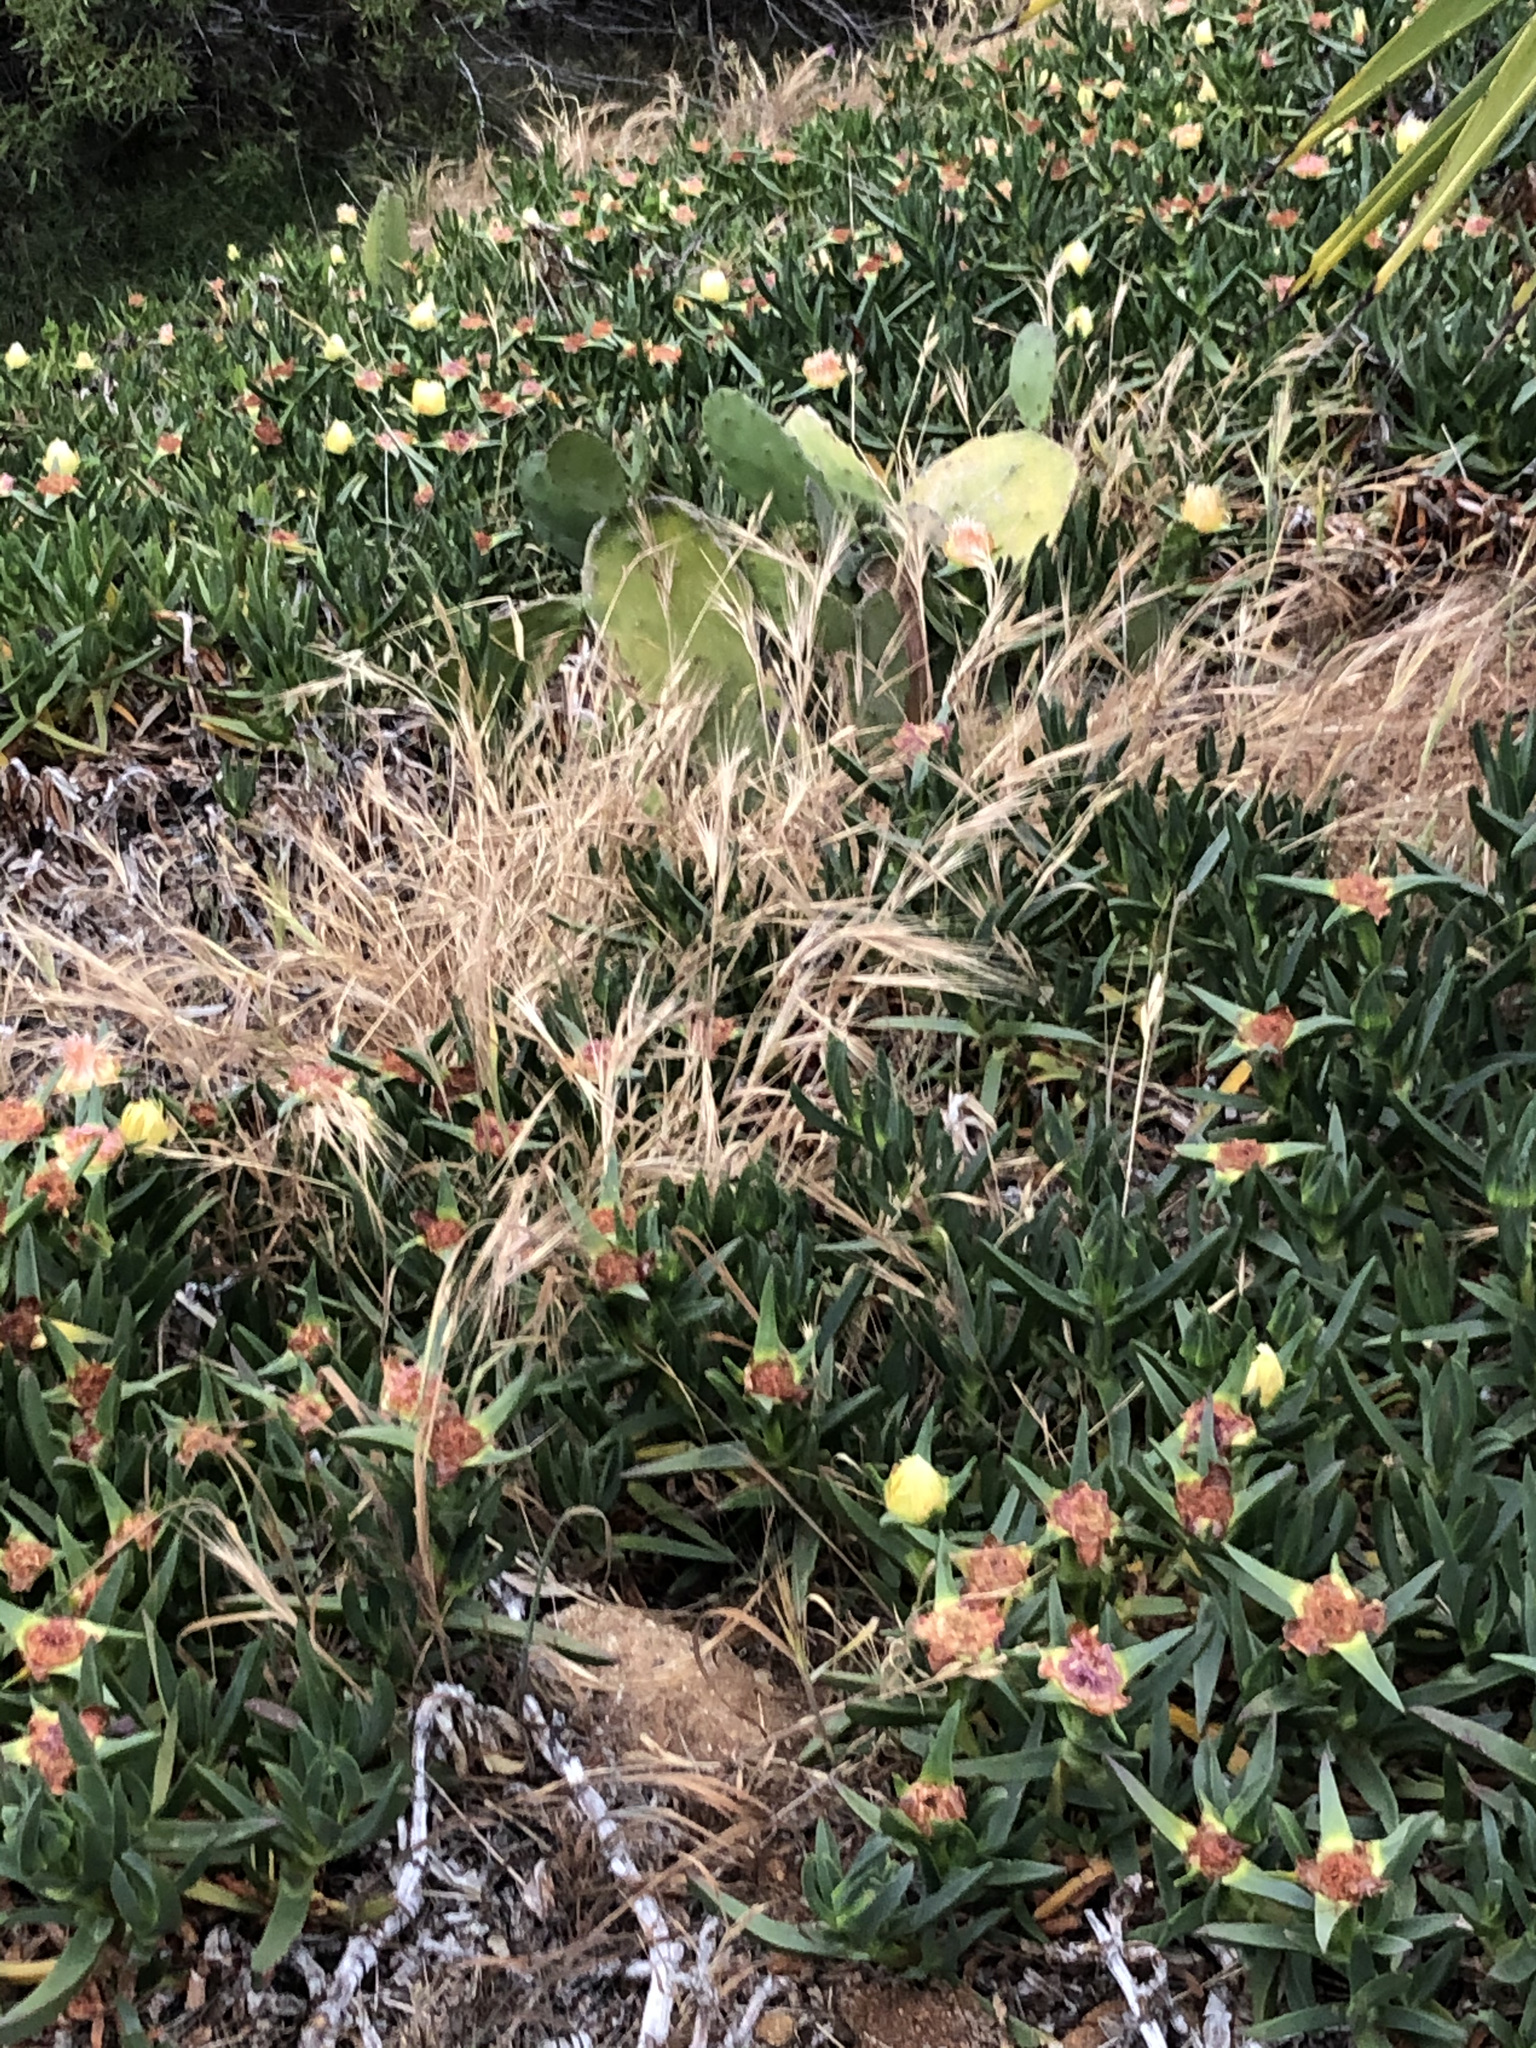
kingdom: Plantae
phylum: Tracheophyta
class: Magnoliopsida
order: Caryophyllales
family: Aizoaceae
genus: Carpobrotus
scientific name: Carpobrotus edulis
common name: Hottentot-fig
